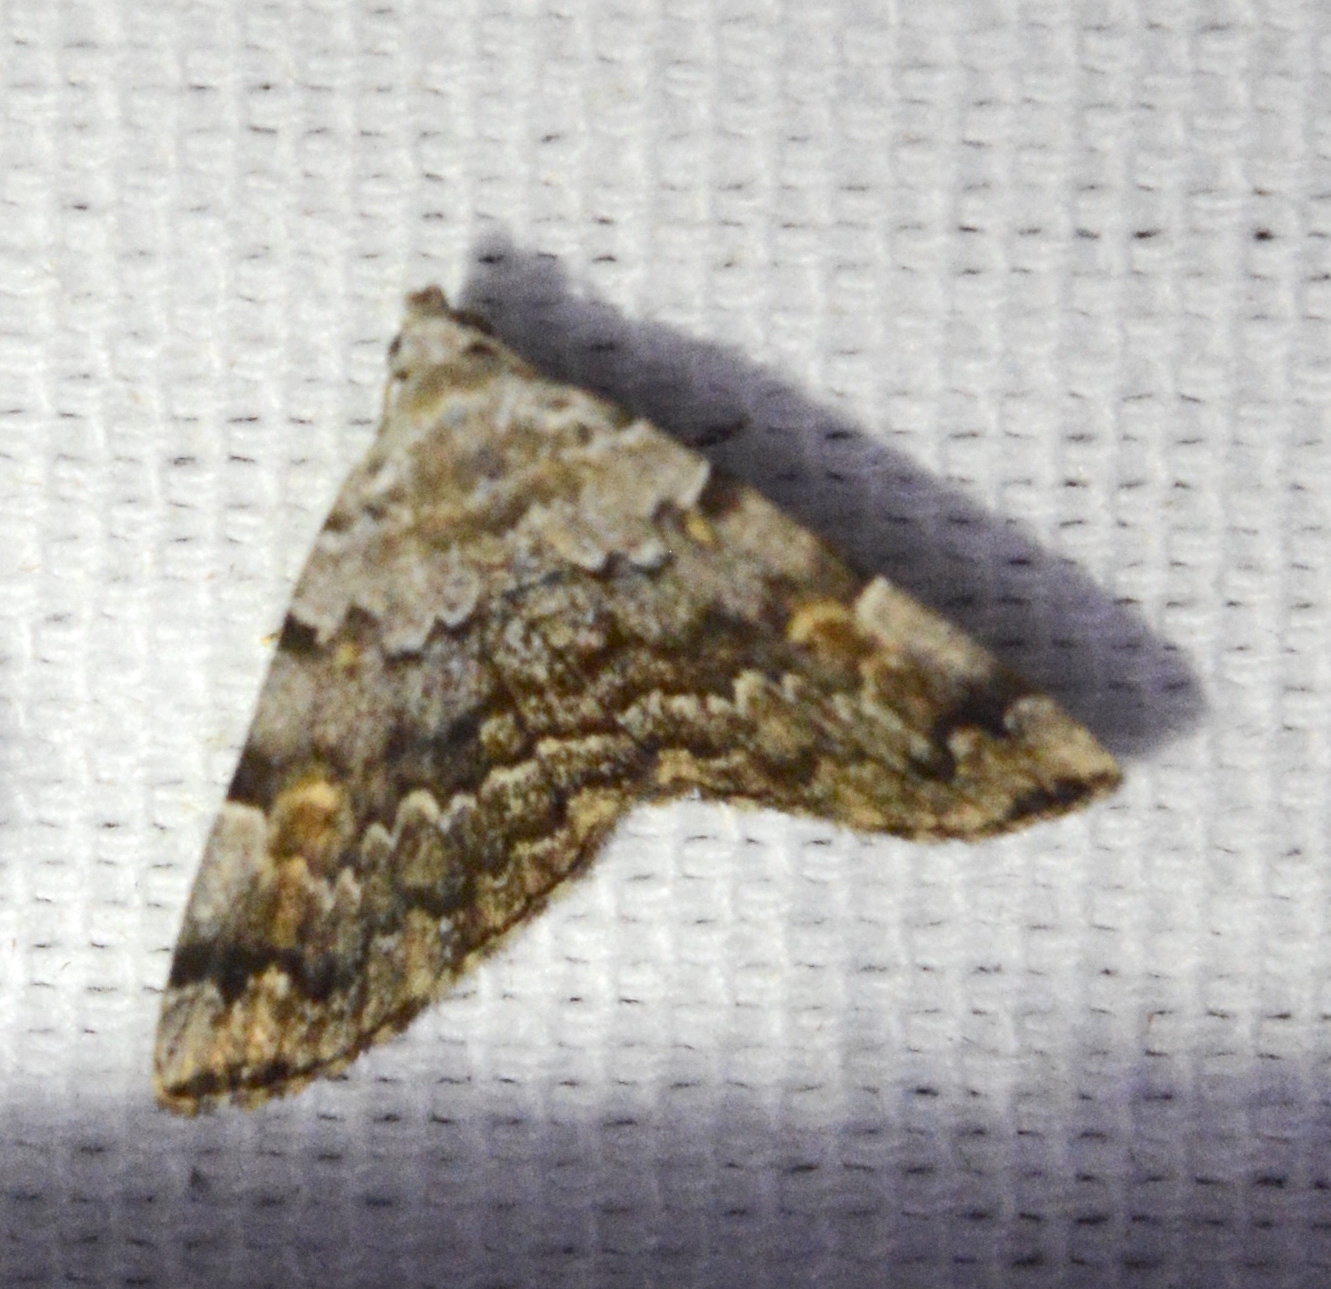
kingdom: Animalia
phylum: Arthropoda
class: Insecta
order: Lepidoptera
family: Erebidae
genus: Idia
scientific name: Idia americalis
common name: American idia moth
